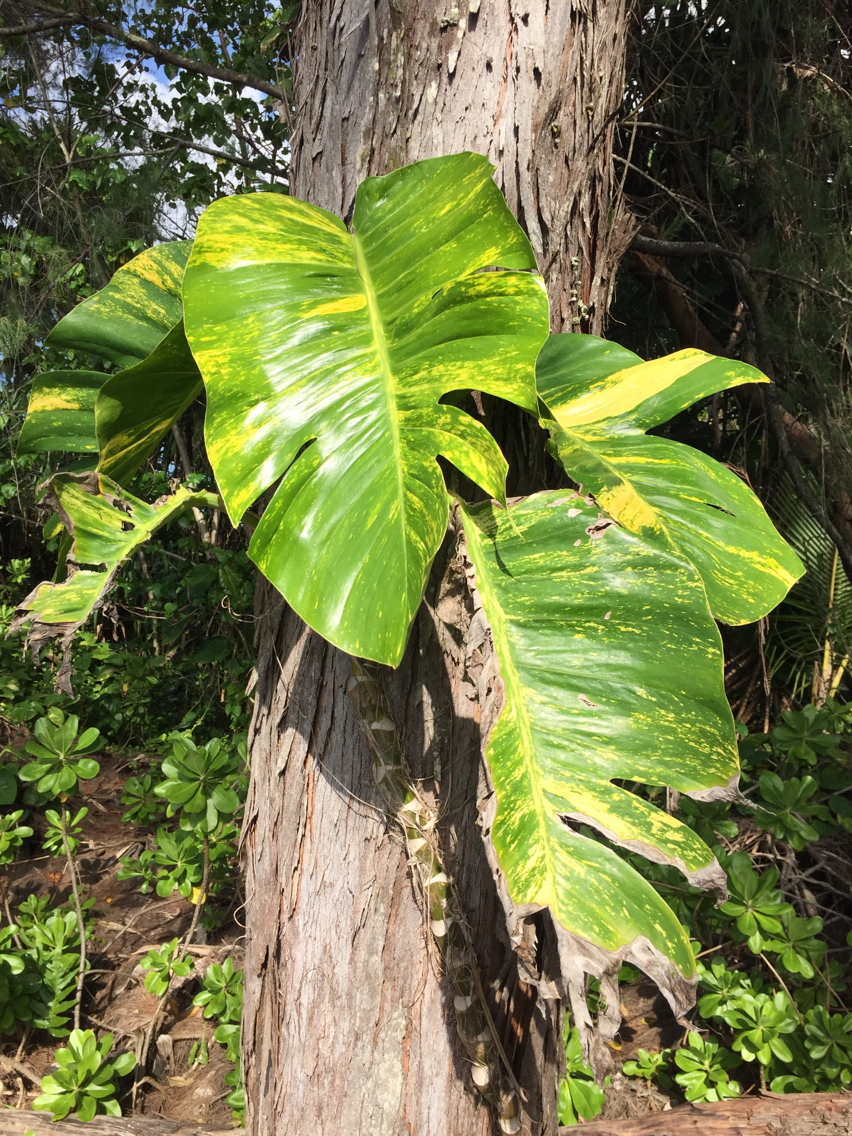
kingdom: Plantae
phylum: Tracheophyta
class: Liliopsida
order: Alismatales
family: Araceae
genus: Epipremnum
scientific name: Epipremnum aureum
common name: Golden hunter's-robe
